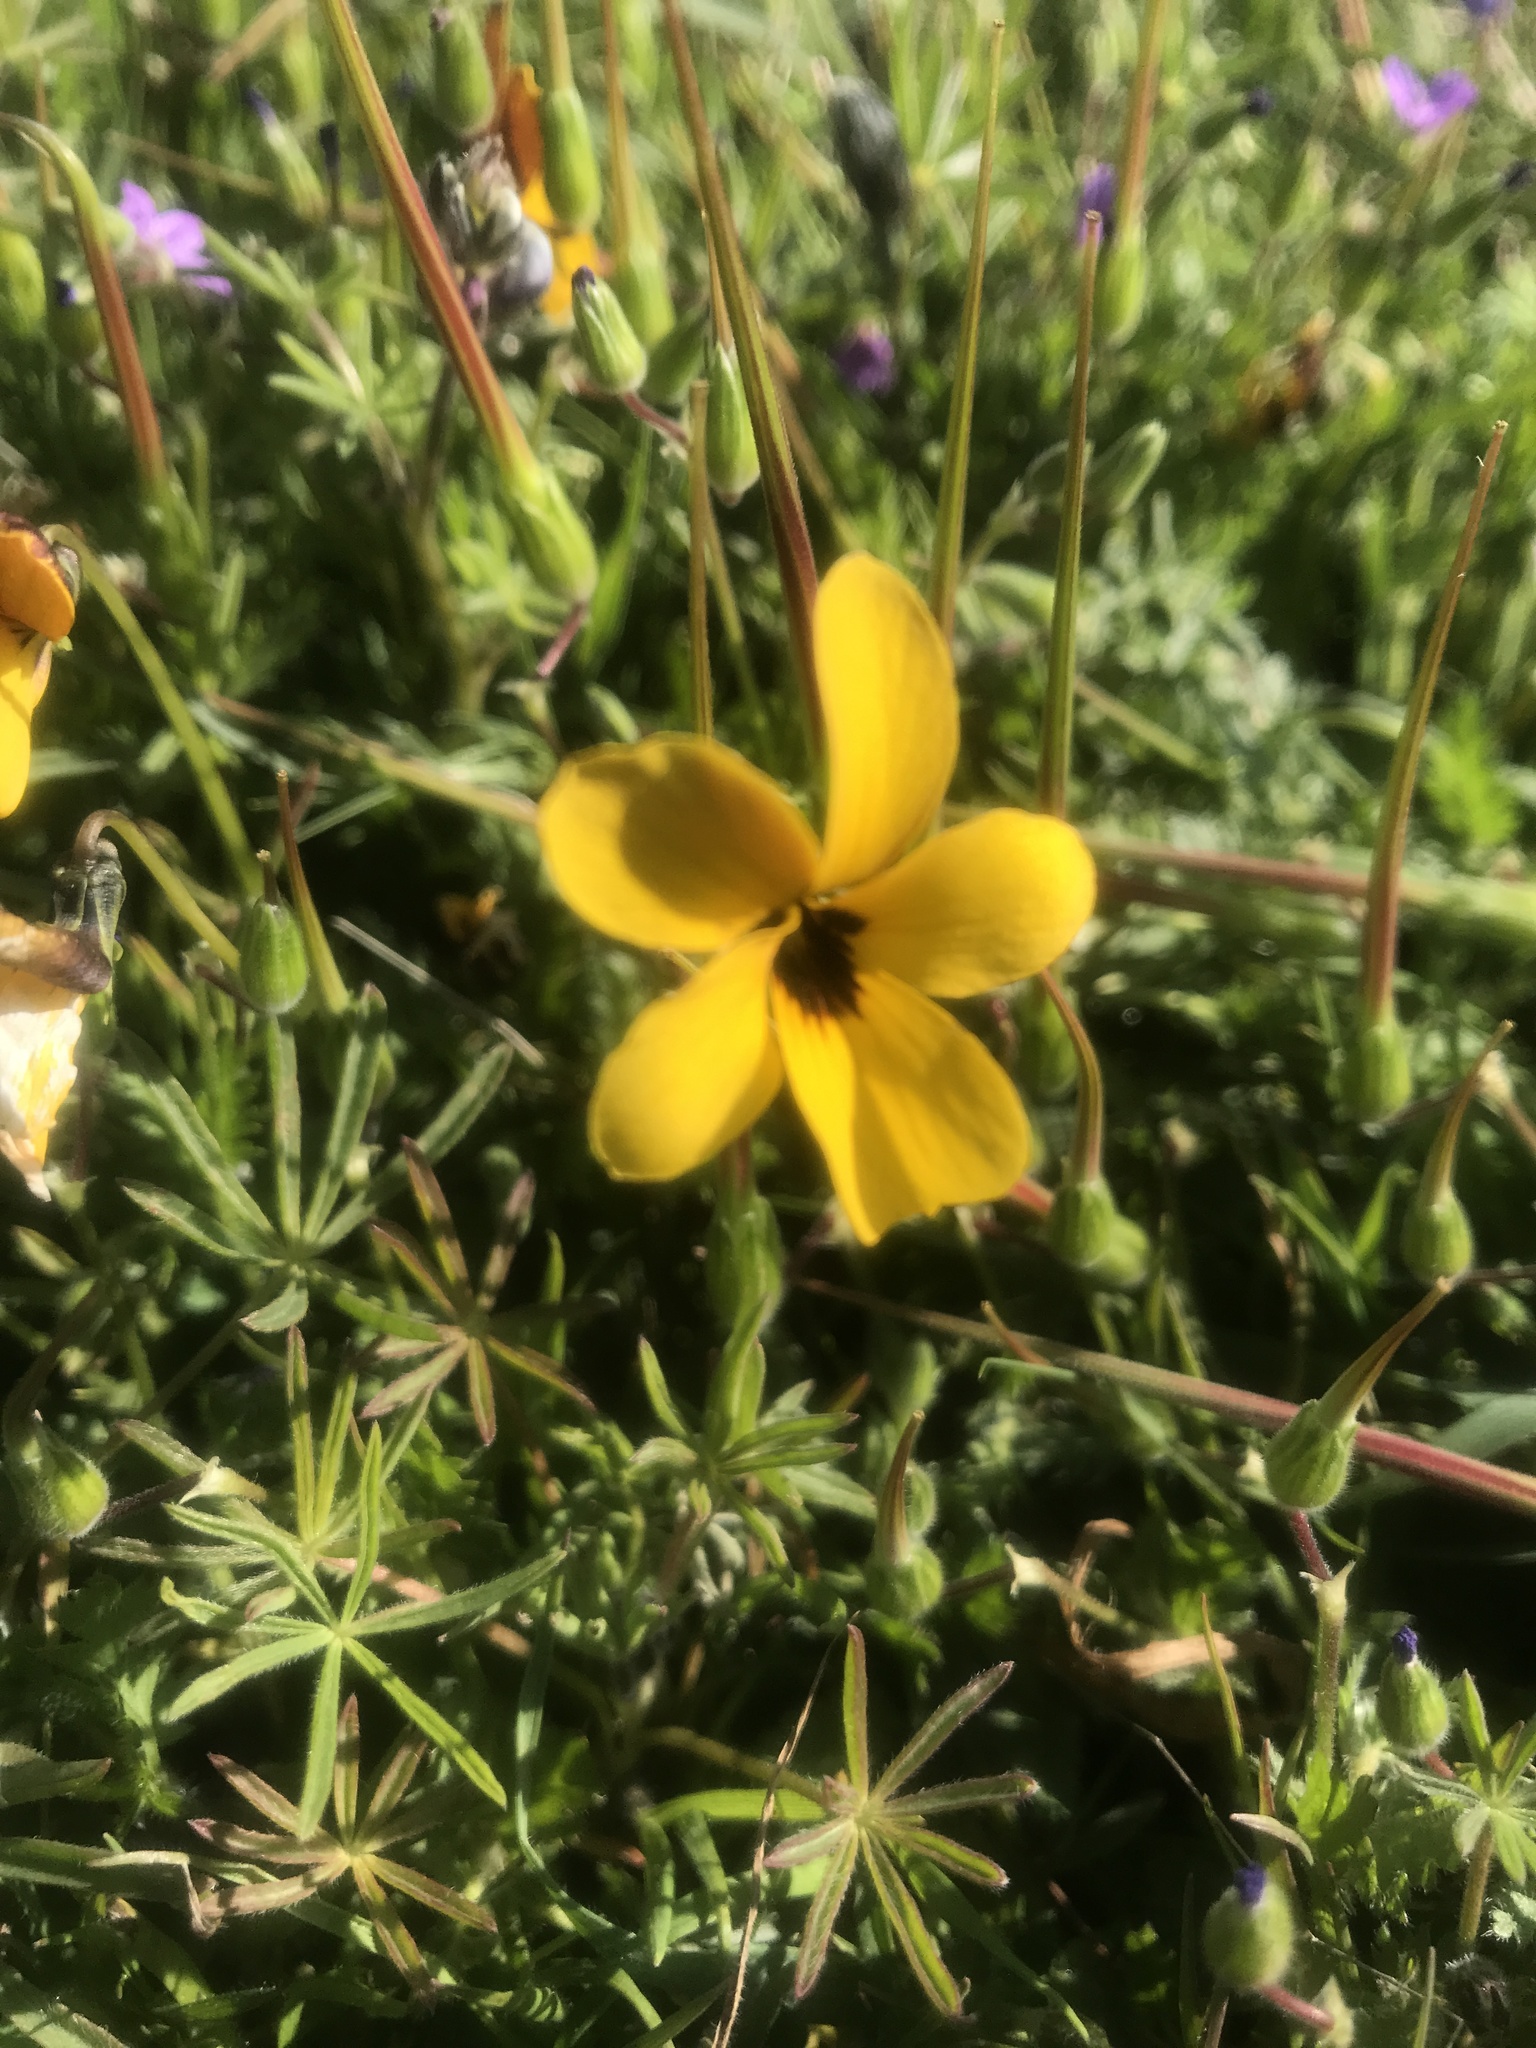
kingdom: Plantae
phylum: Tracheophyta
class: Magnoliopsida
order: Malpighiales
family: Violaceae
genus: Viola
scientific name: Viola douglasii
